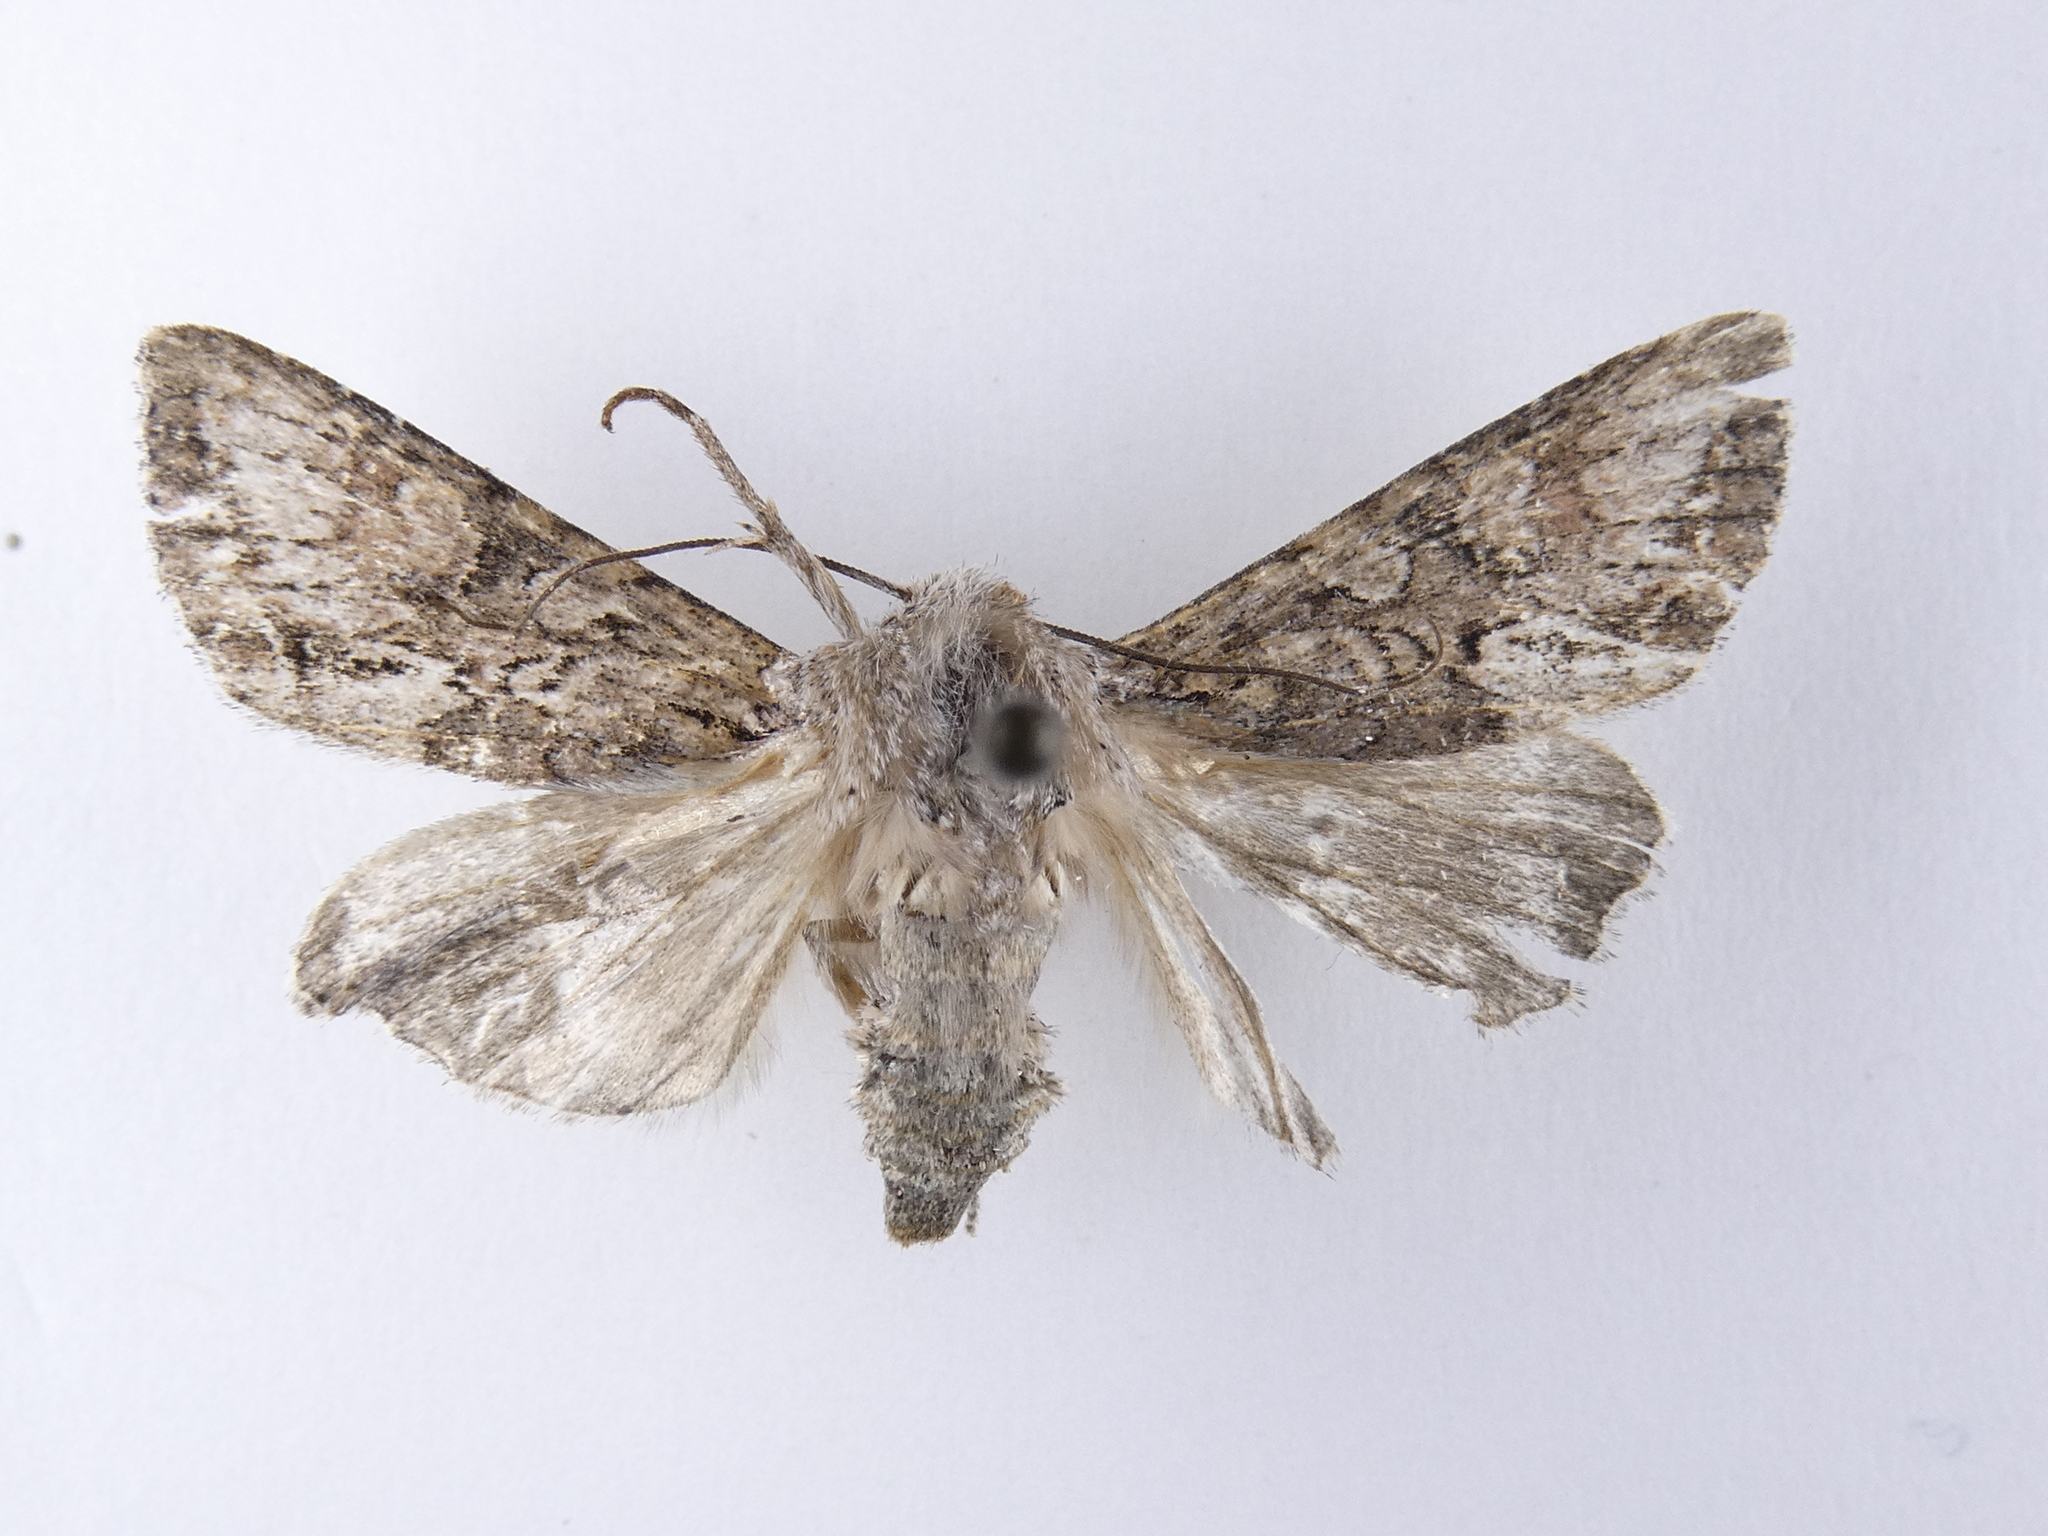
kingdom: Animalia
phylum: Arthropoda
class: Insecta
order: Lepidoptera
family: Noctuidae
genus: Ichneutica
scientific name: Ichneutica mutans
